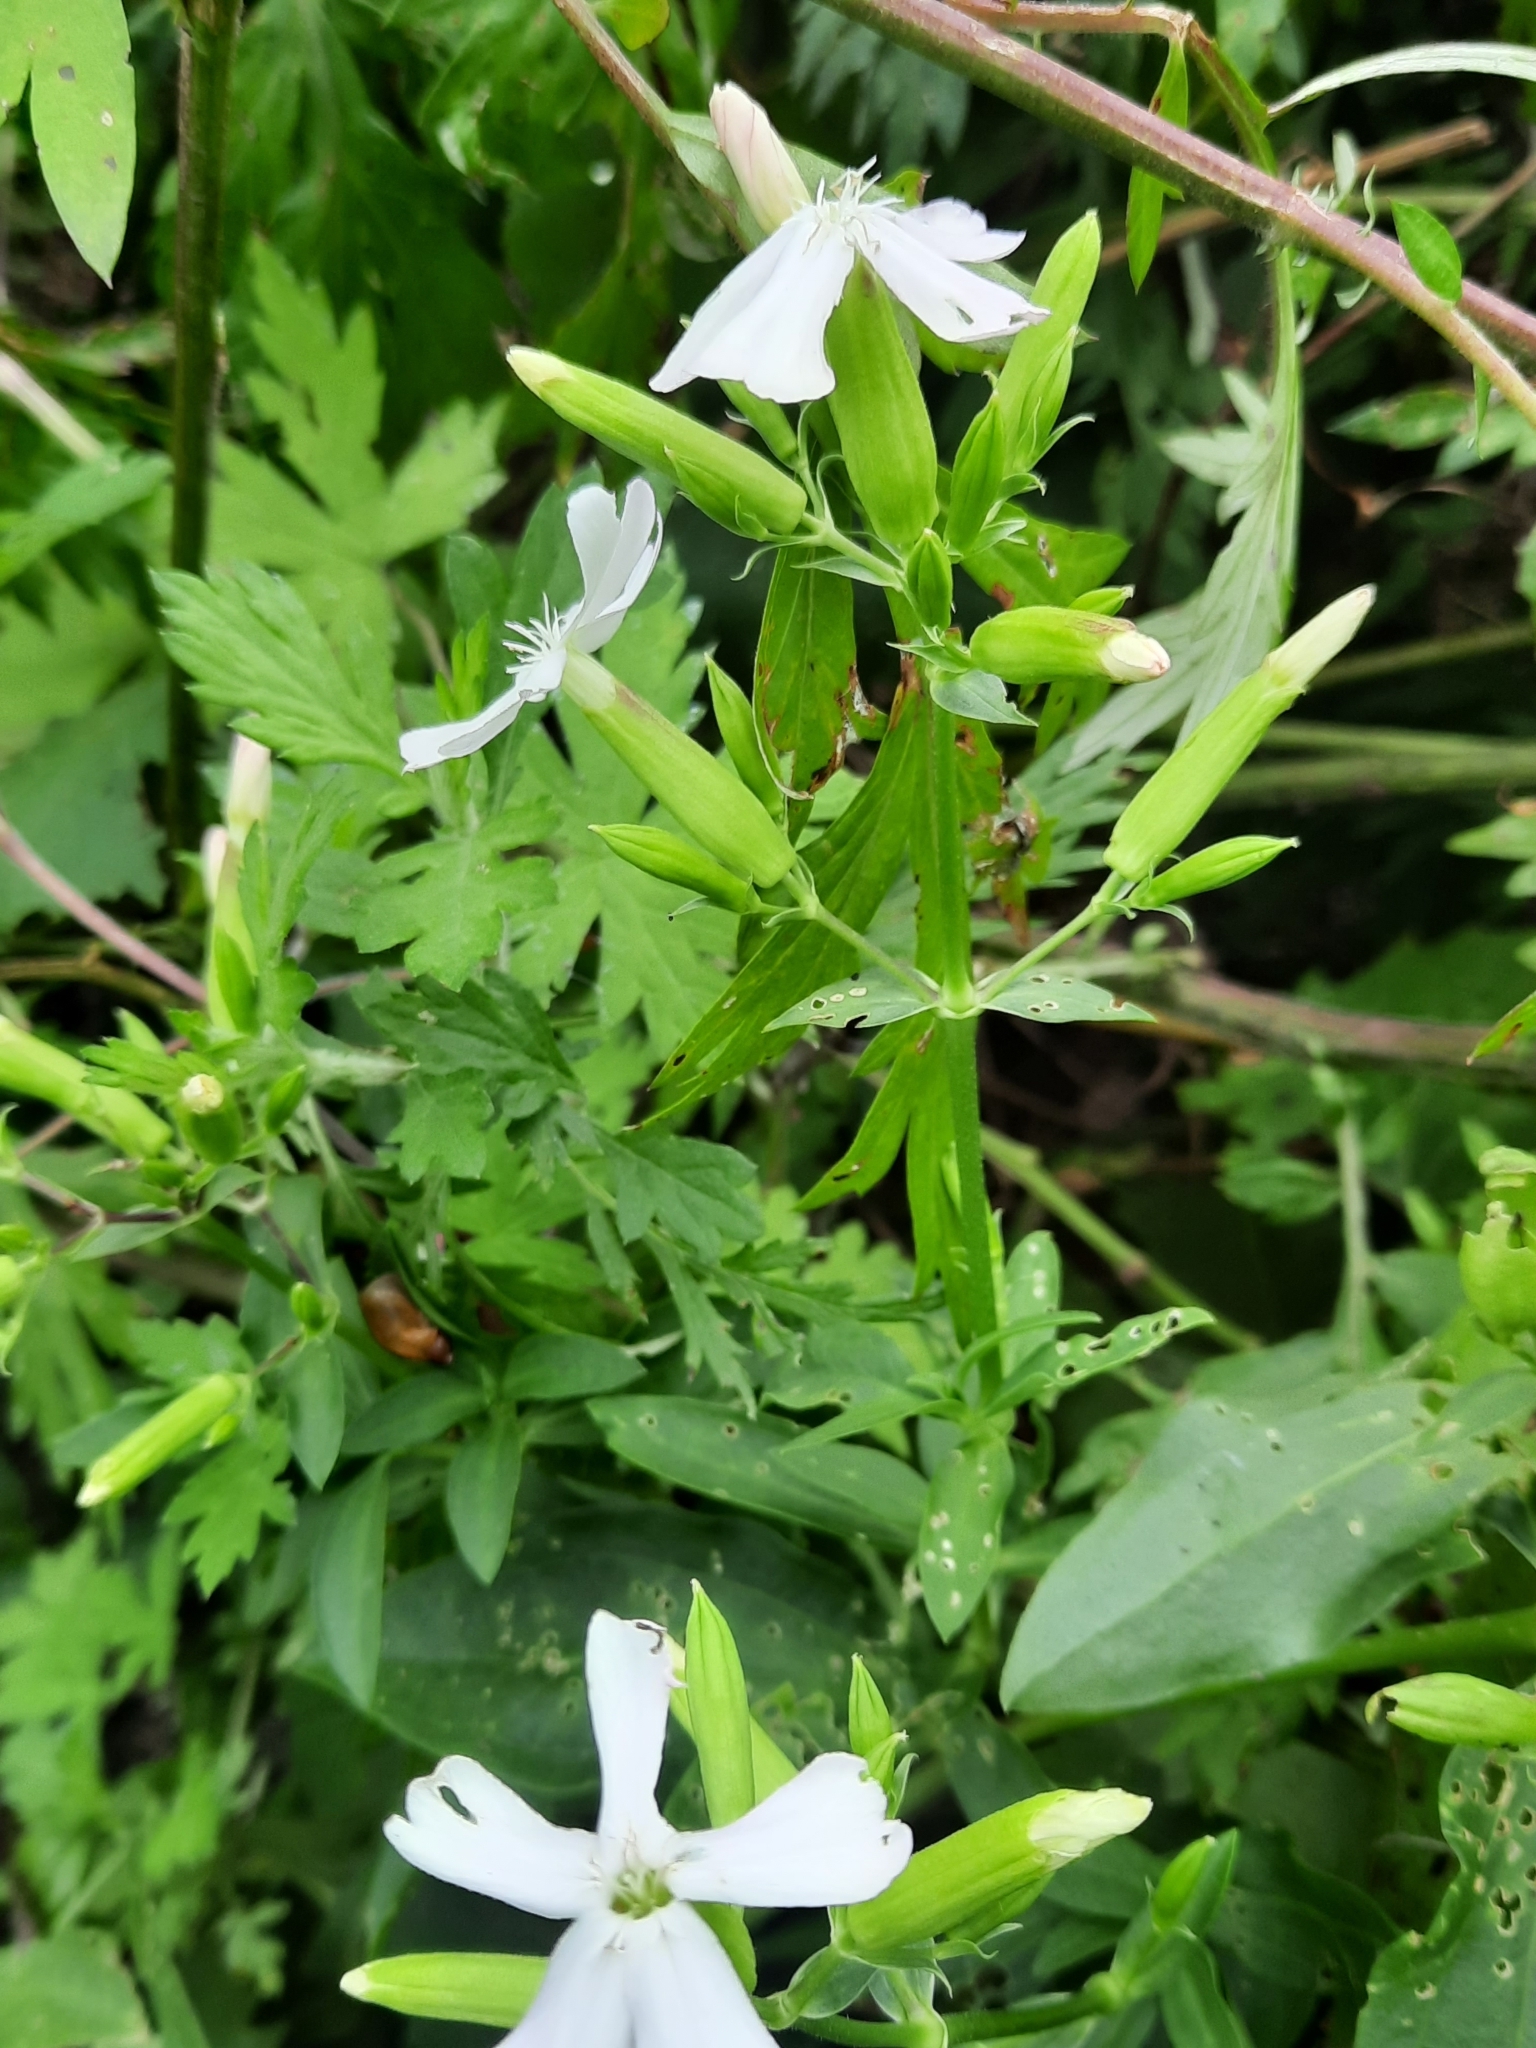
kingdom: Plantae
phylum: Tracheophyta
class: Magnoliopsida
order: Caryophyllales
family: Caryophyllaceae
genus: Saponaria
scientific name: Saponaria officinalis
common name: Soapwort
